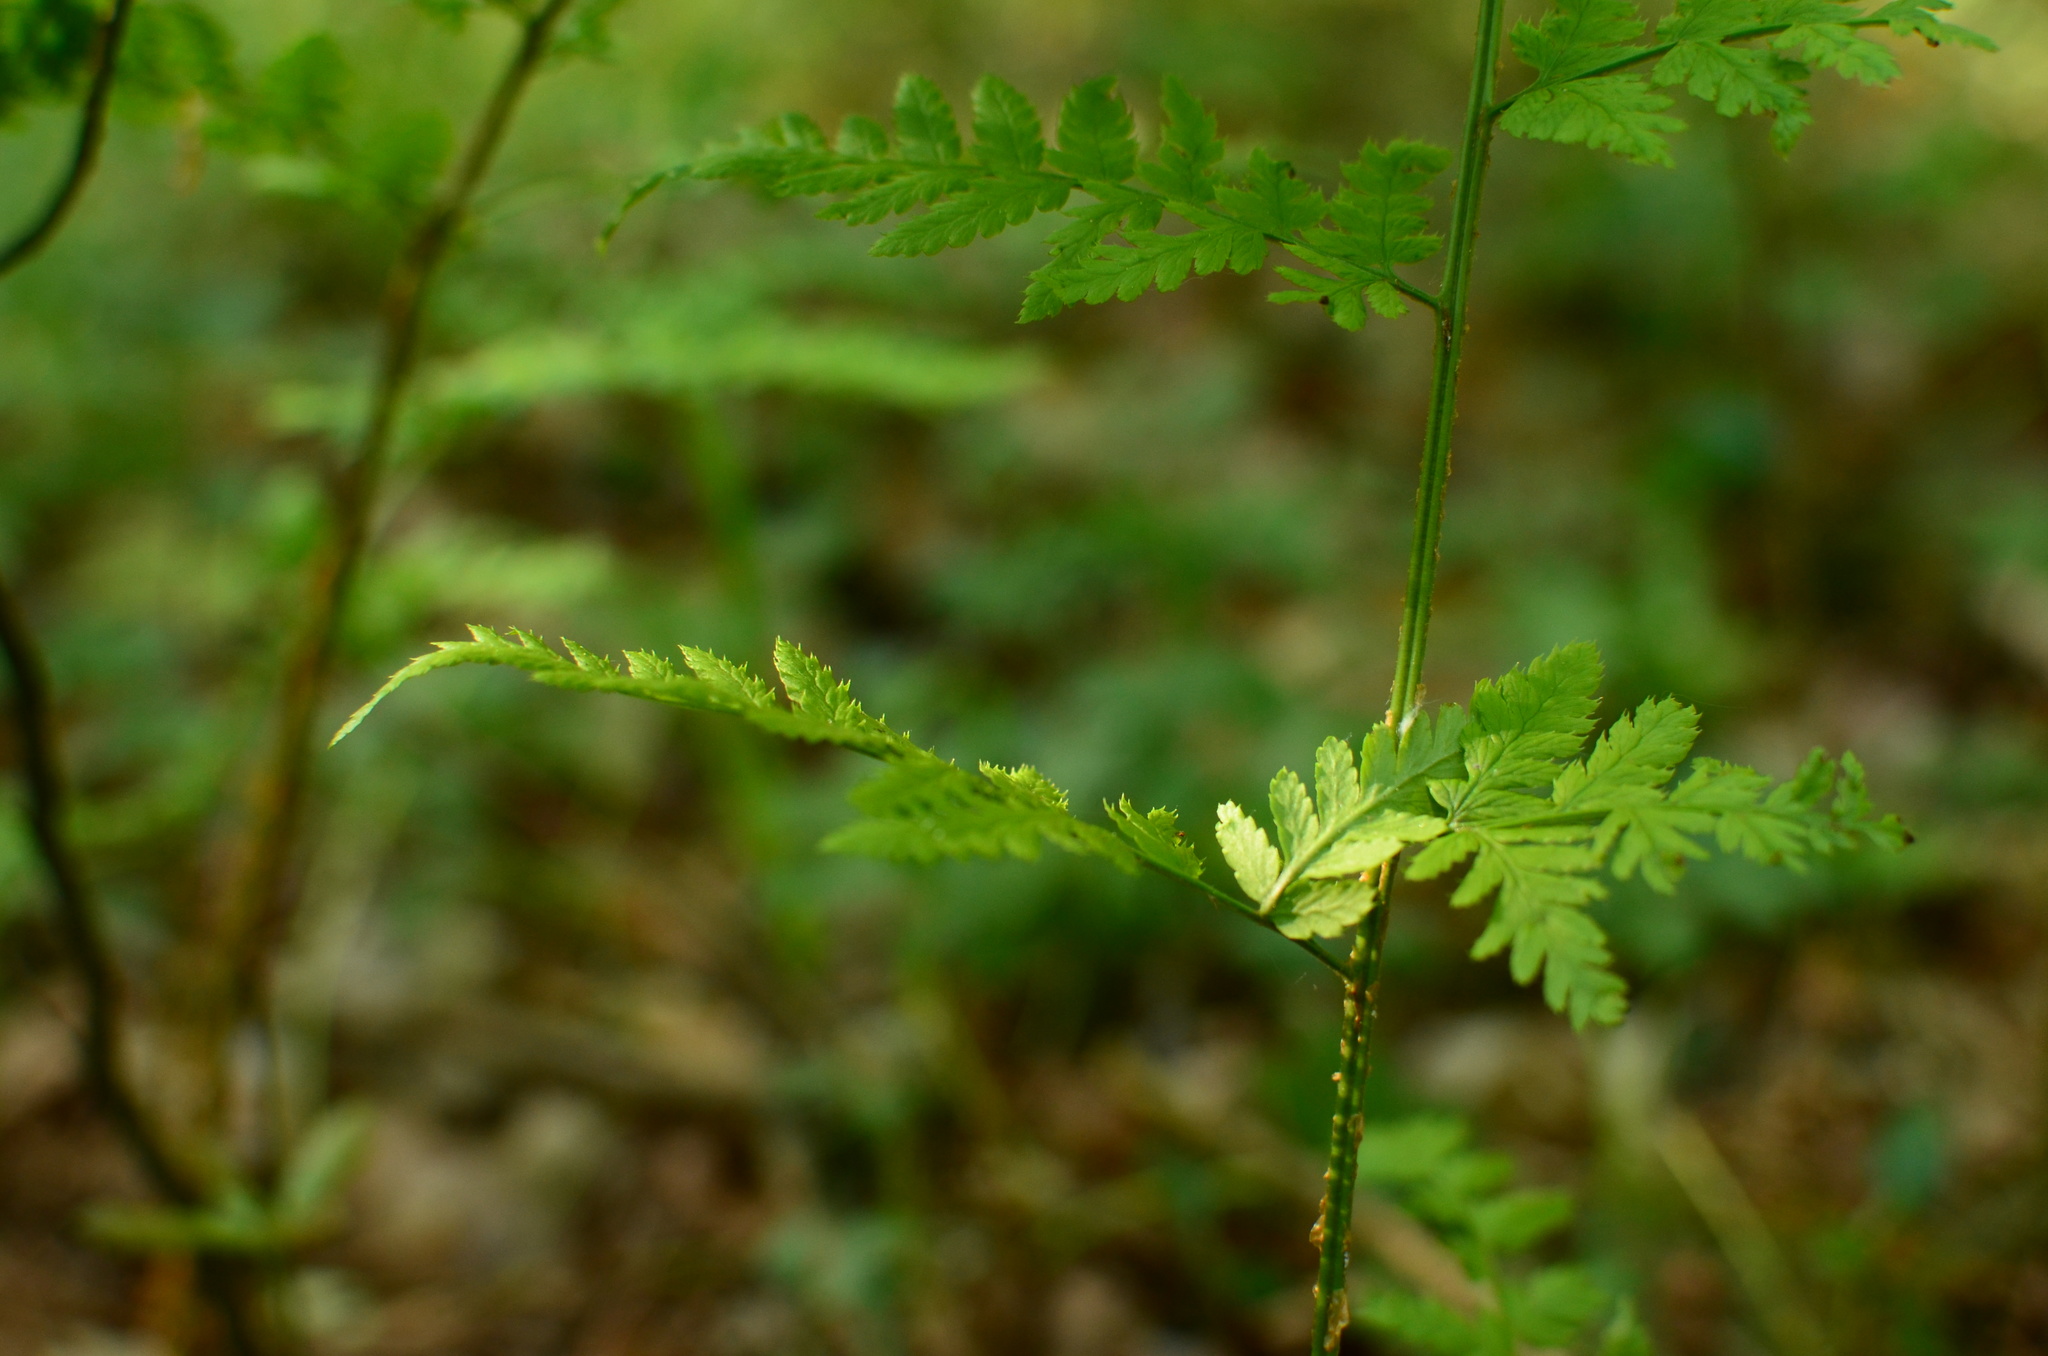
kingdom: Plantae
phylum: Tracheophyta
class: Polypodiopsida
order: Polypodiales
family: Dryopteridaceae
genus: Dryopteris
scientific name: Dryopteris carthusiana
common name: Narrow buckler-fern
